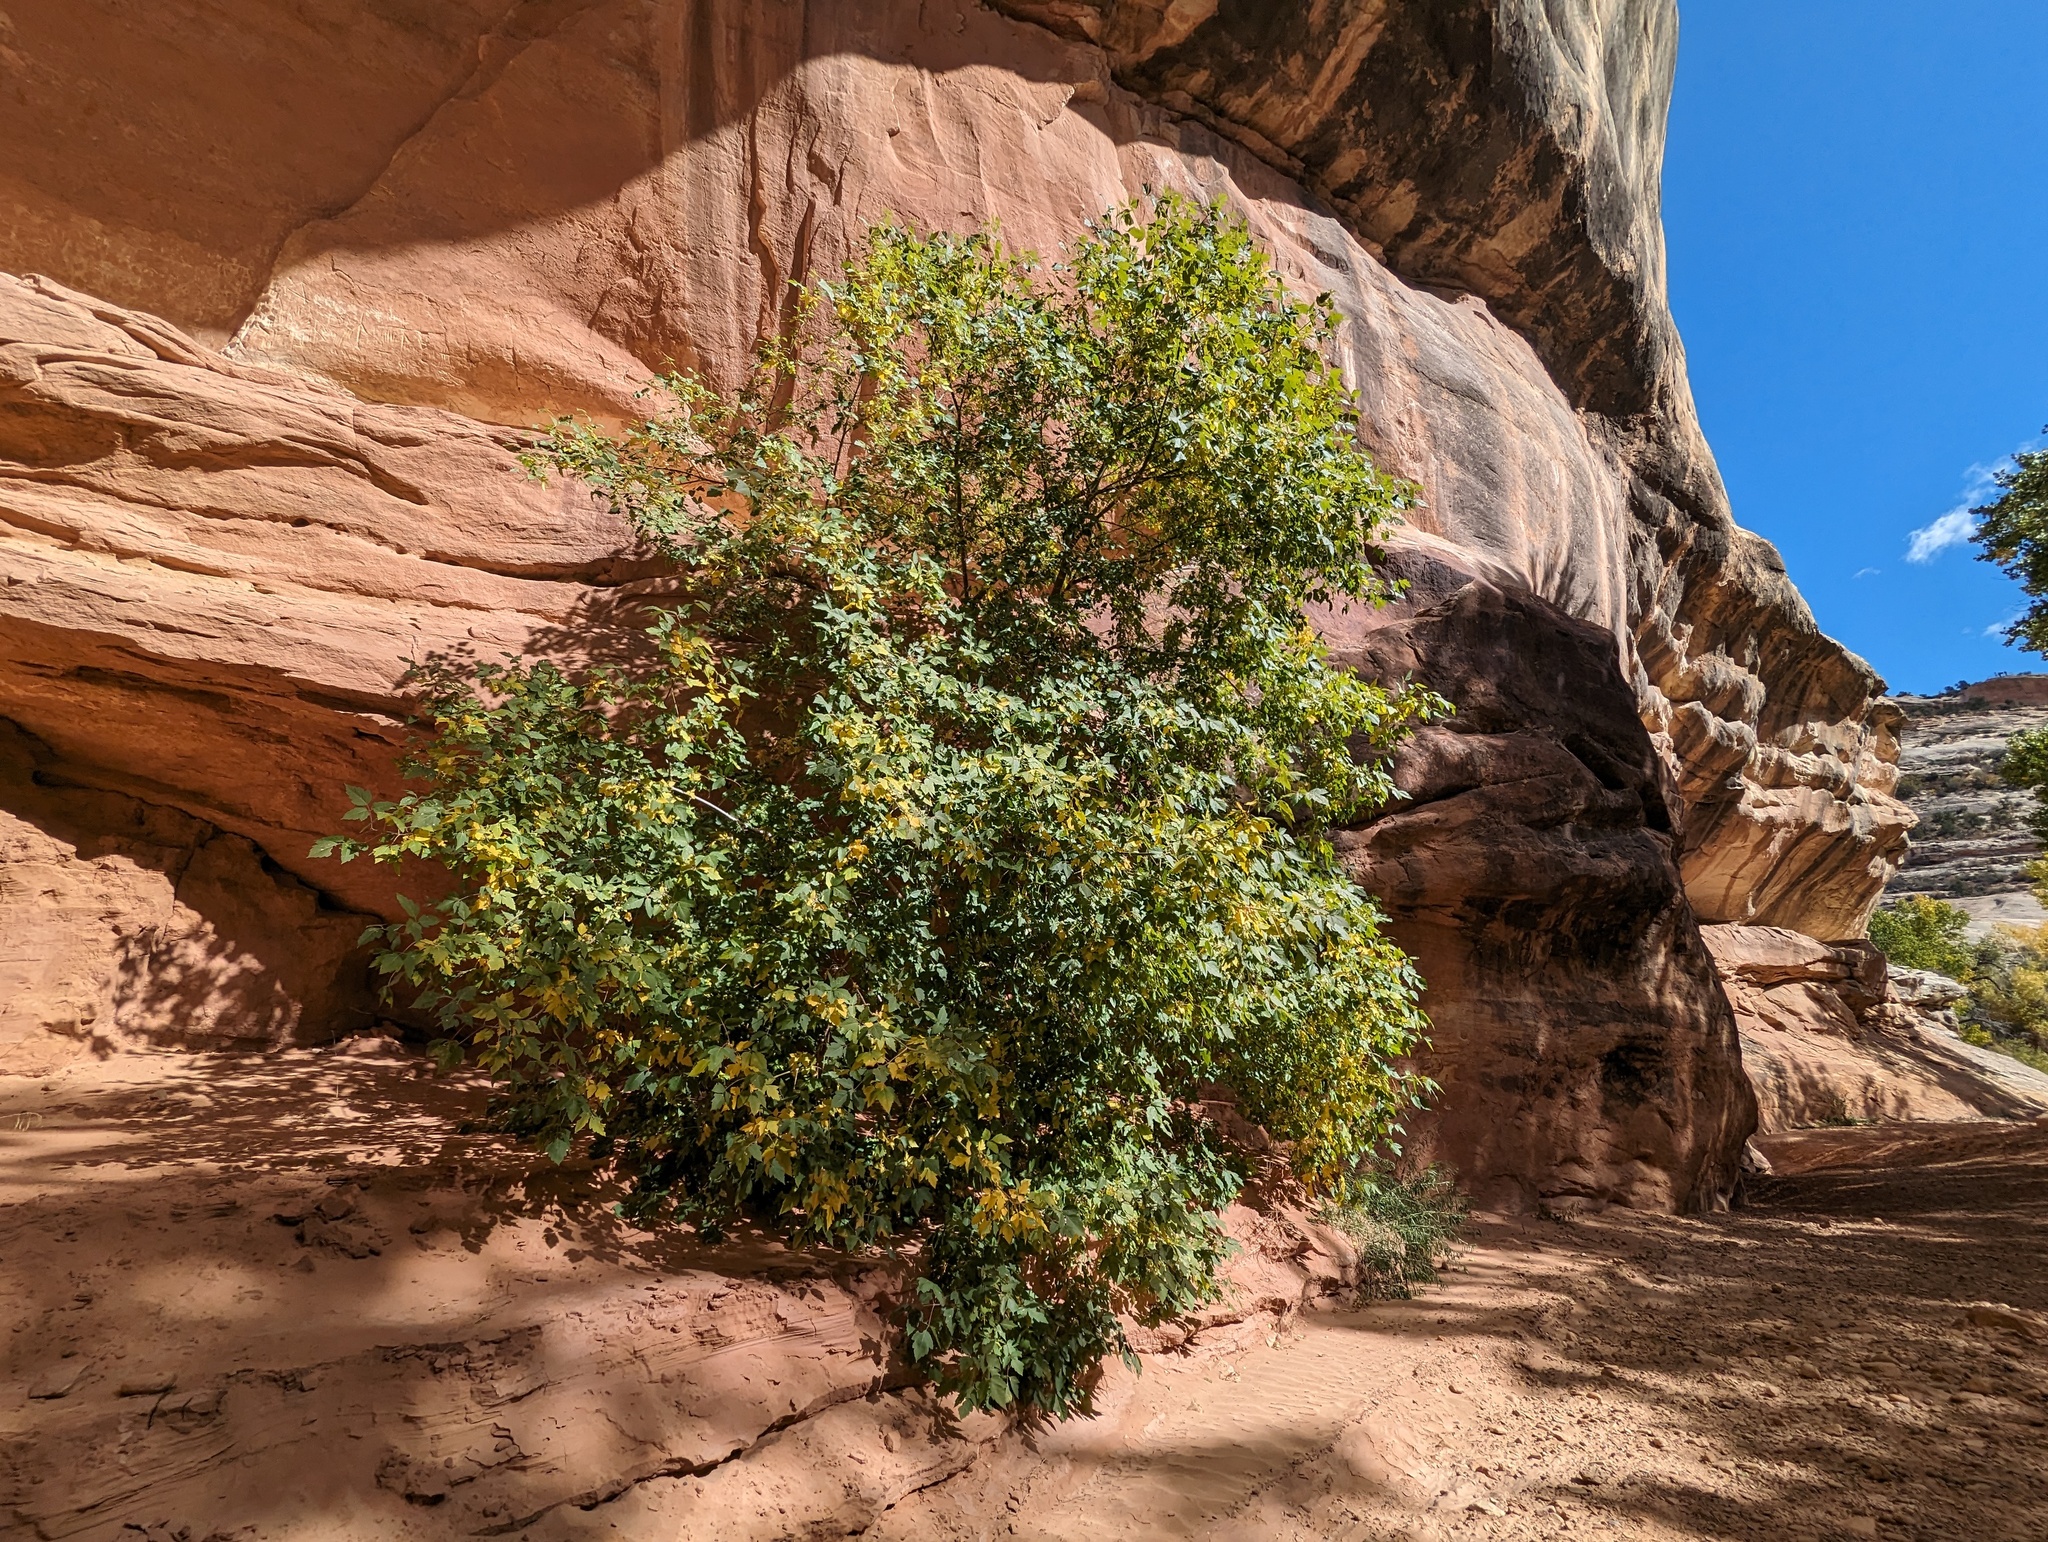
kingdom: Plantae
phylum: Tracheophyta
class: Magnoliopsida
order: Sapindales
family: Sapindaceae
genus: Acer
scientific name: Acer negundo
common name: Ashleaf maple
